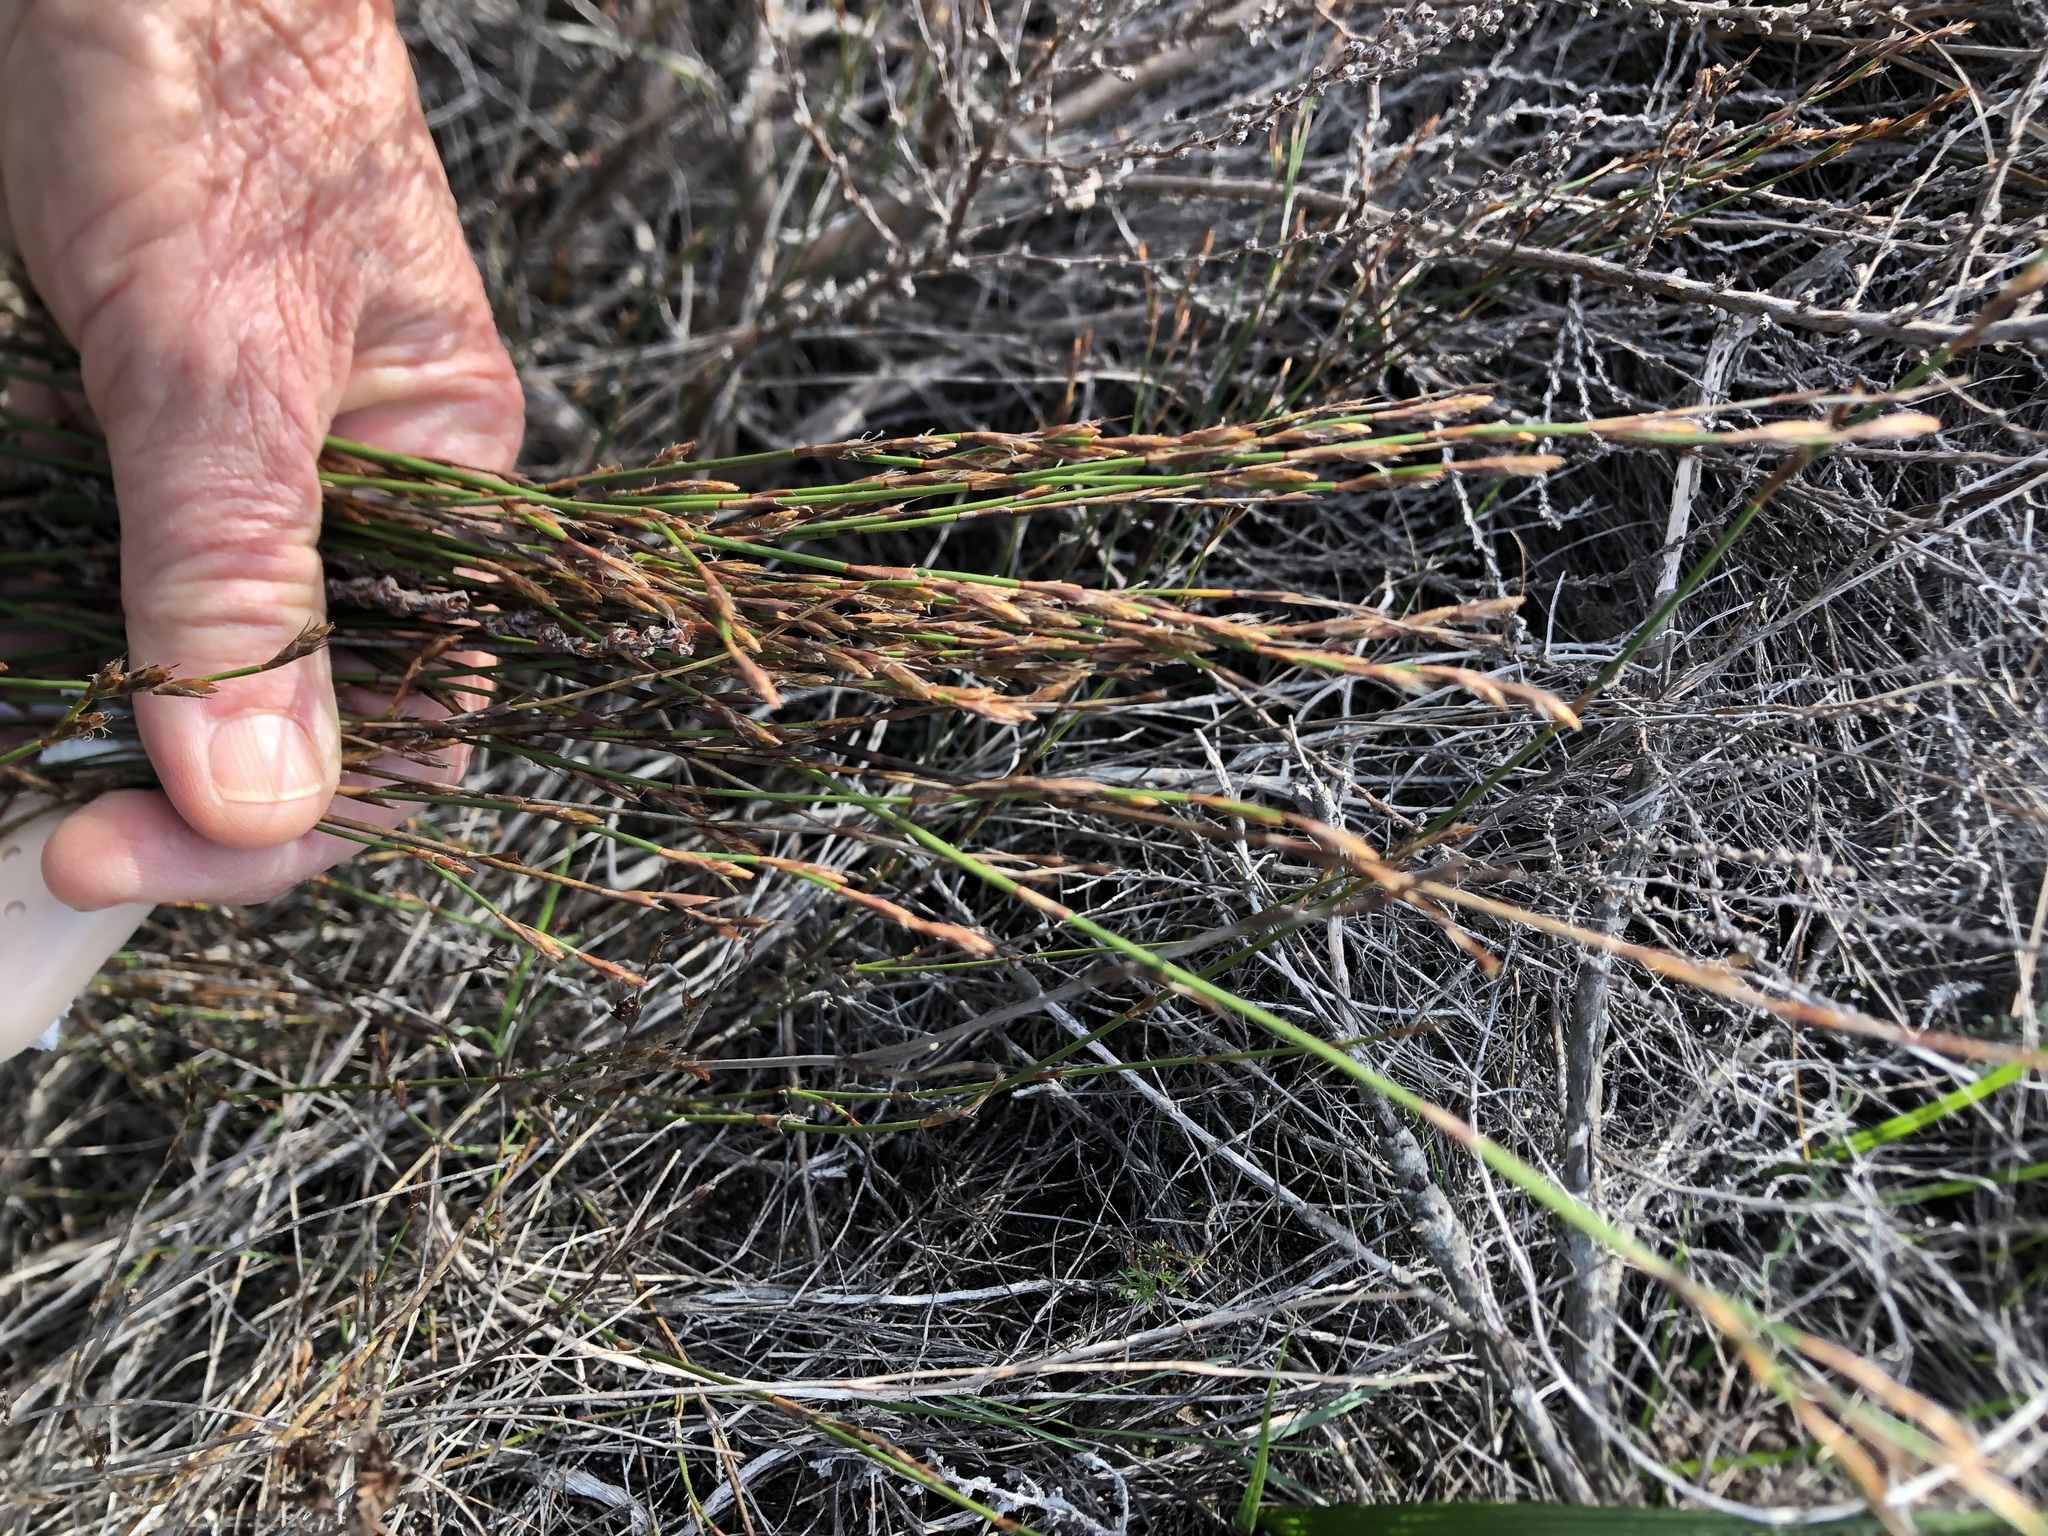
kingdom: Plantae
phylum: Tracheophyta
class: Liliopsida
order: Poales
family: Restionaceae
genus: Restio
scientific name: Restio triticeus
